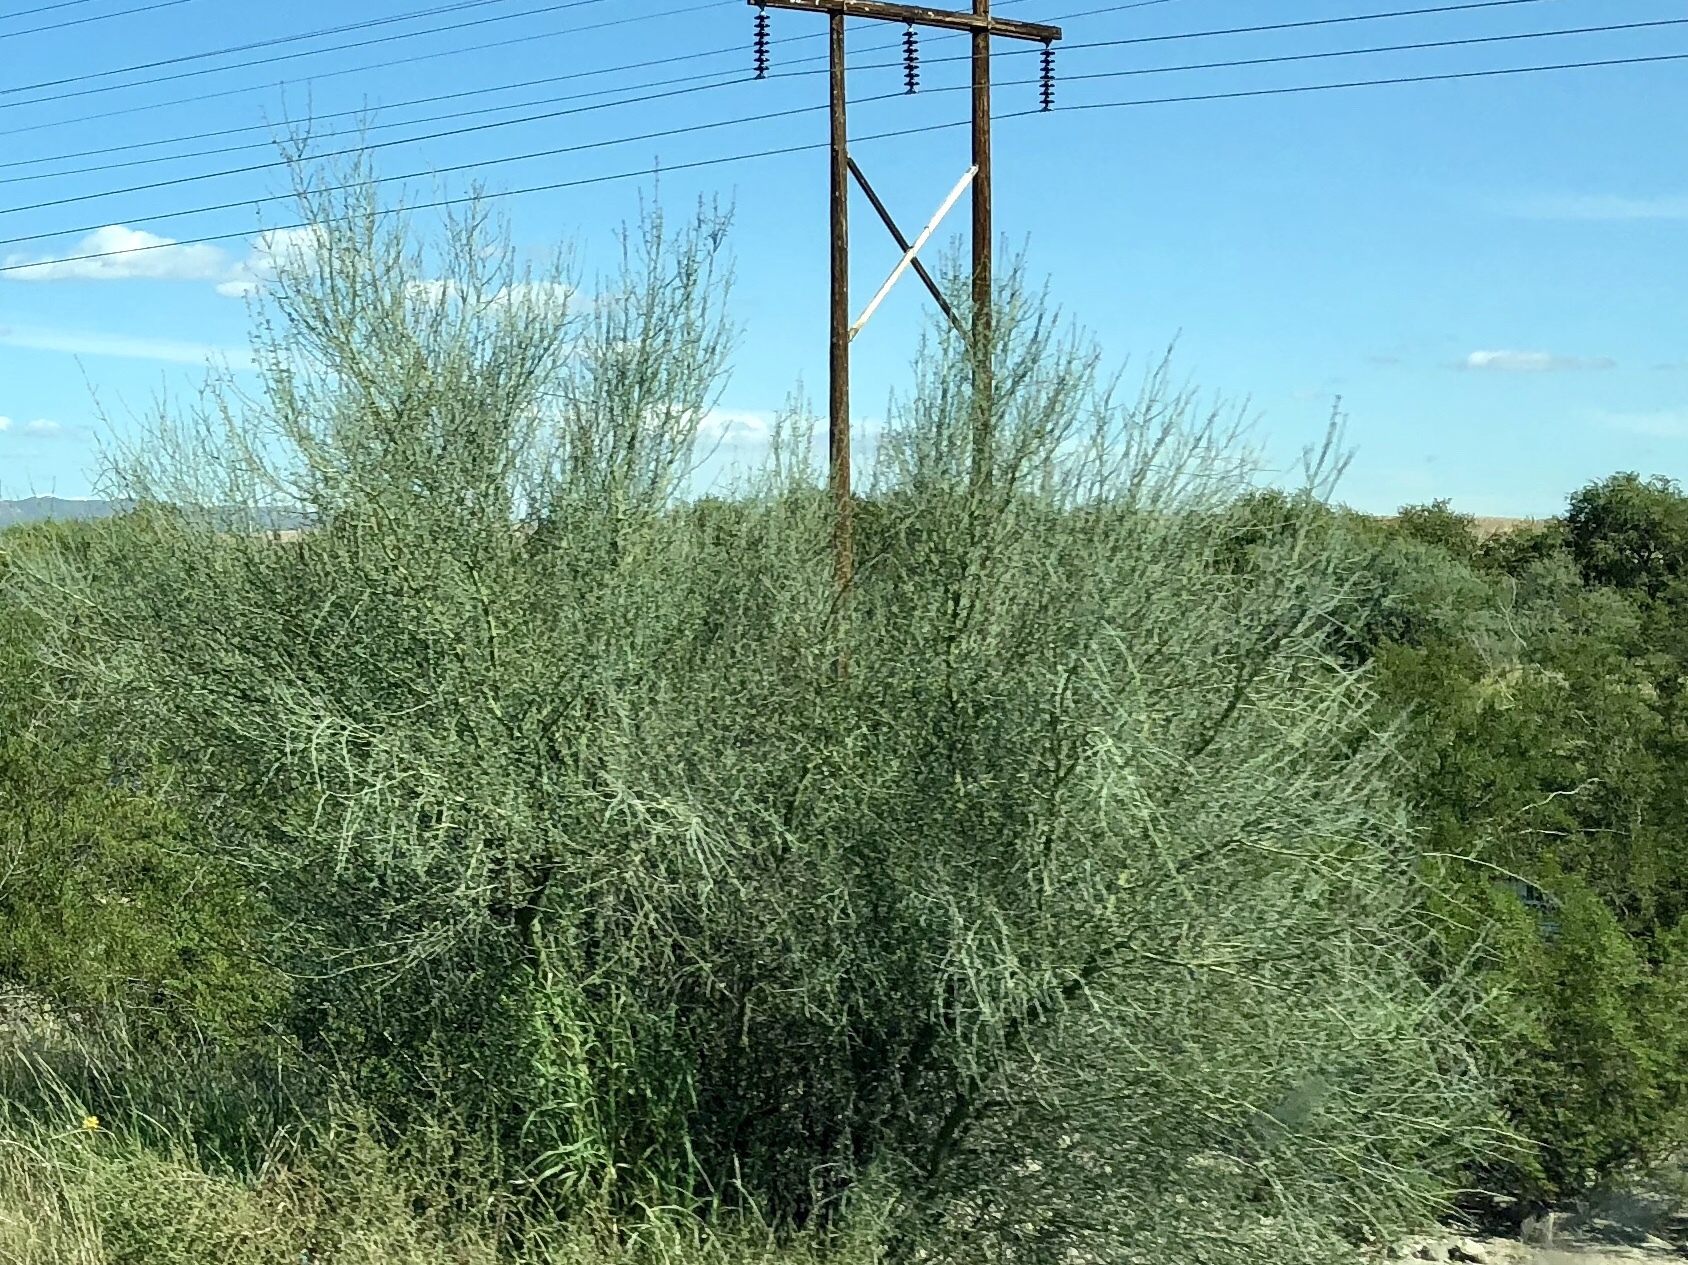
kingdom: Plantae
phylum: Tracheophyta
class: Magnoliopsida
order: Fabales
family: Fabaceae
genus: Parkinsonia
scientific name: Parkinsonia florida
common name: Blue paloverde
